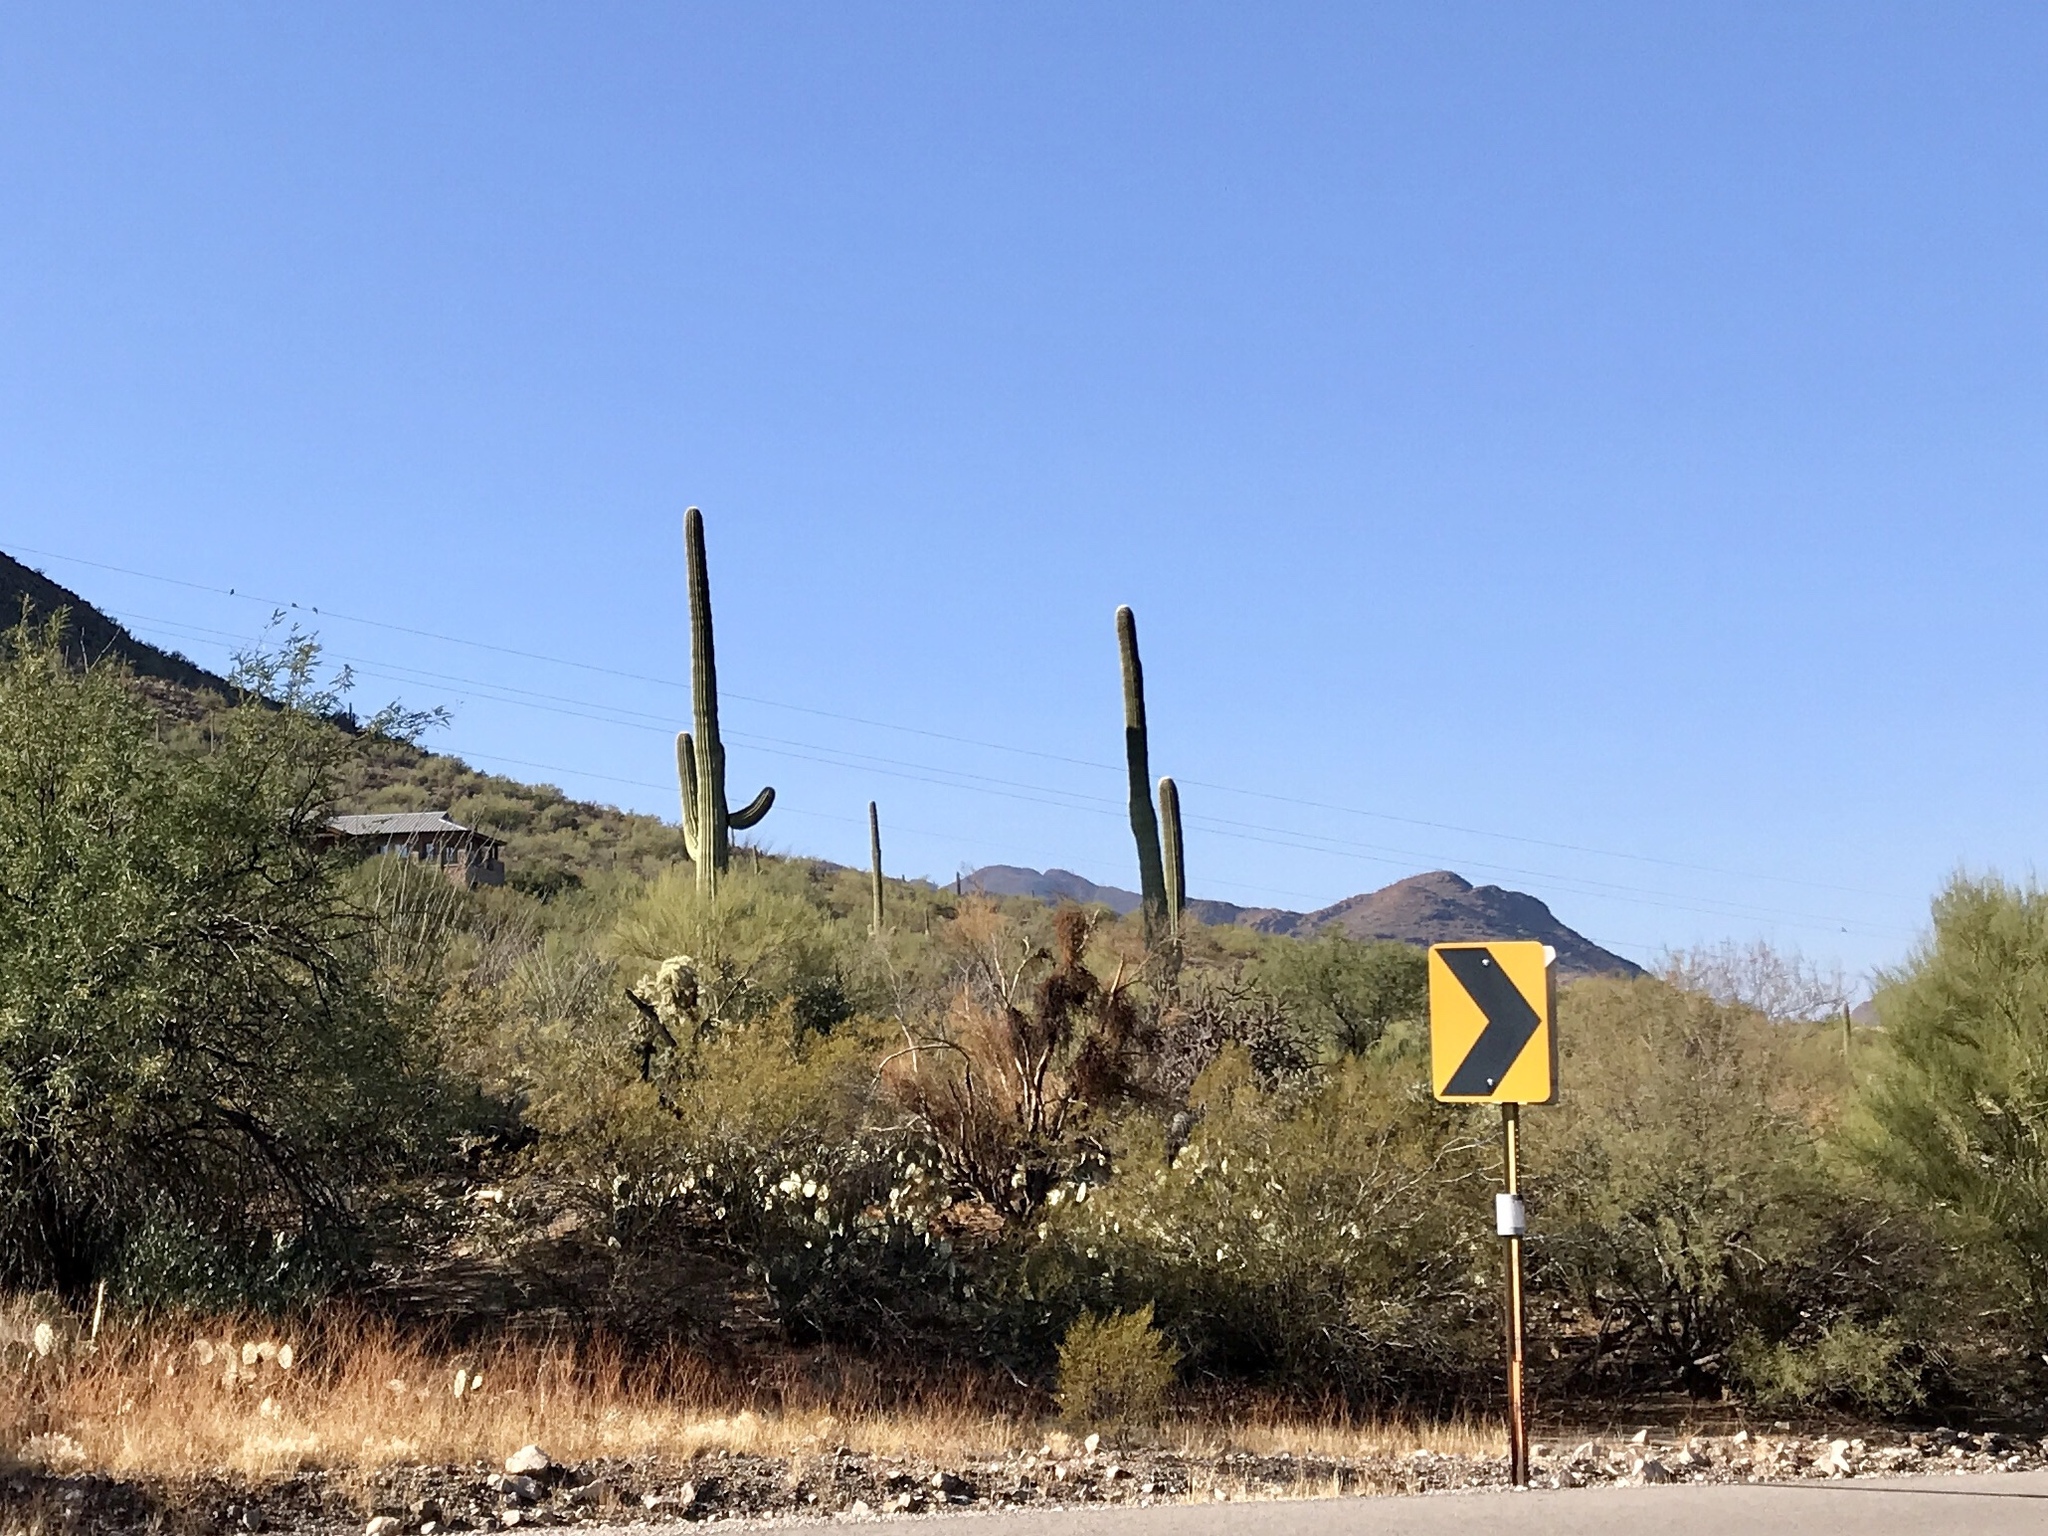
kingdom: Plantae
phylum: Tracheophyta
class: Magnoliopsida
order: Caryophyllales
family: Cactaceae
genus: Carnegiea
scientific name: Carnegiea gigantea
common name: Saguaro
